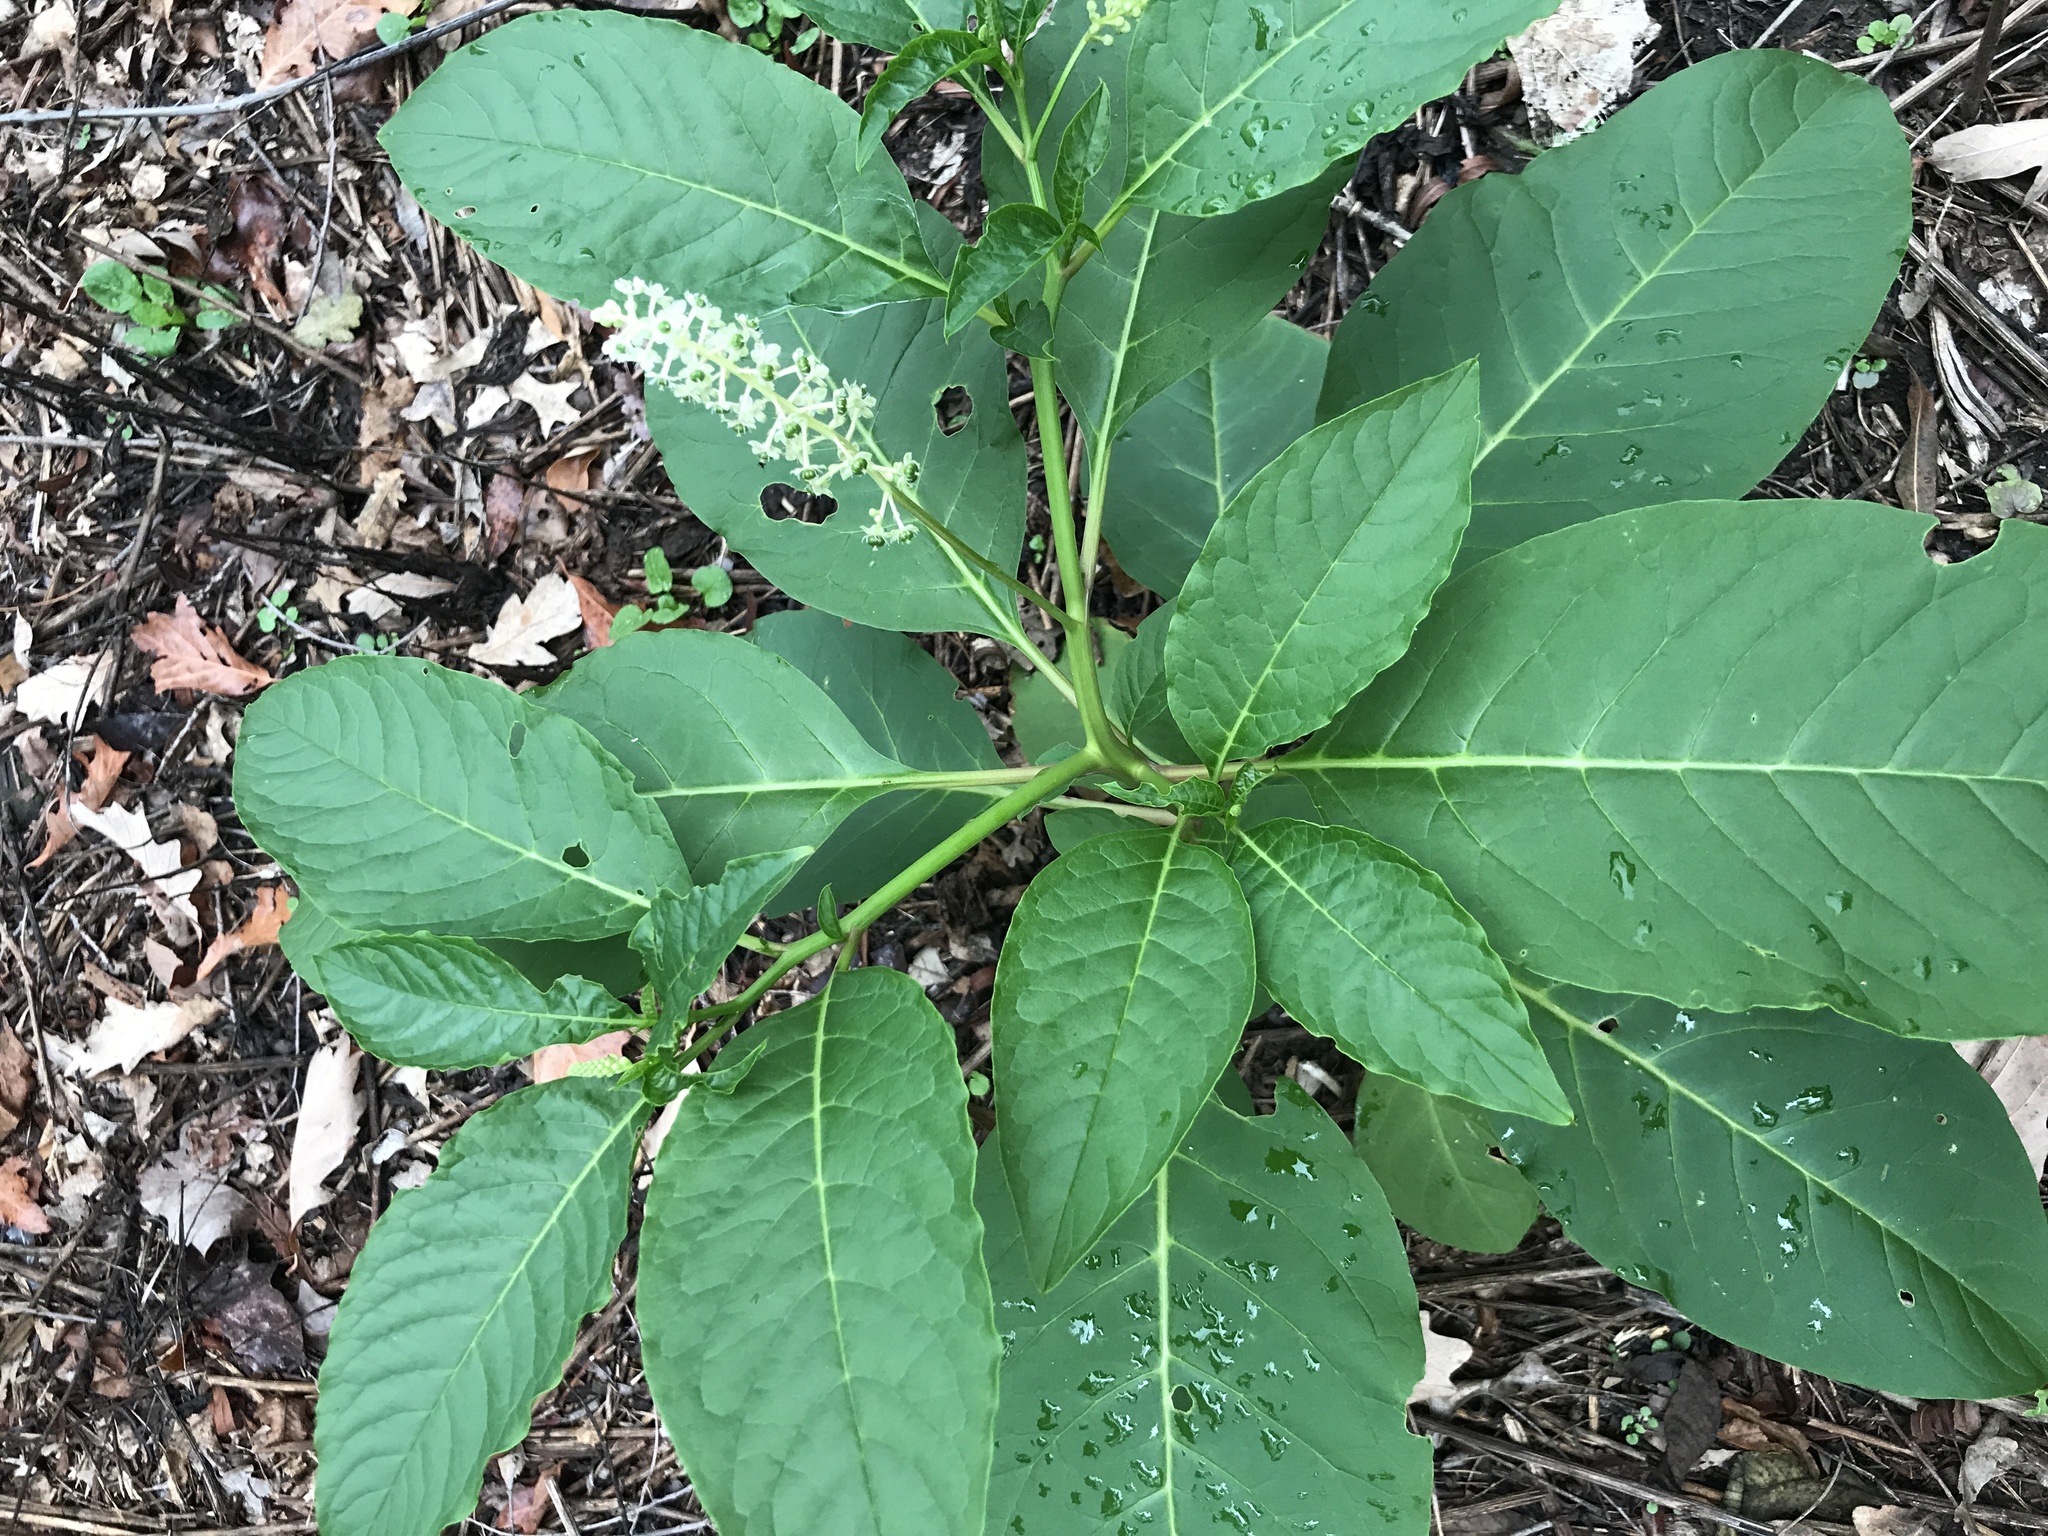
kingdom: Plantae
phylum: Tracheophyta
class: Magnoliopsida
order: Caryophyllales
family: Phytolaccaceae
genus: Phytolacca
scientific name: Phytolacca americana
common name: American pokeweed
